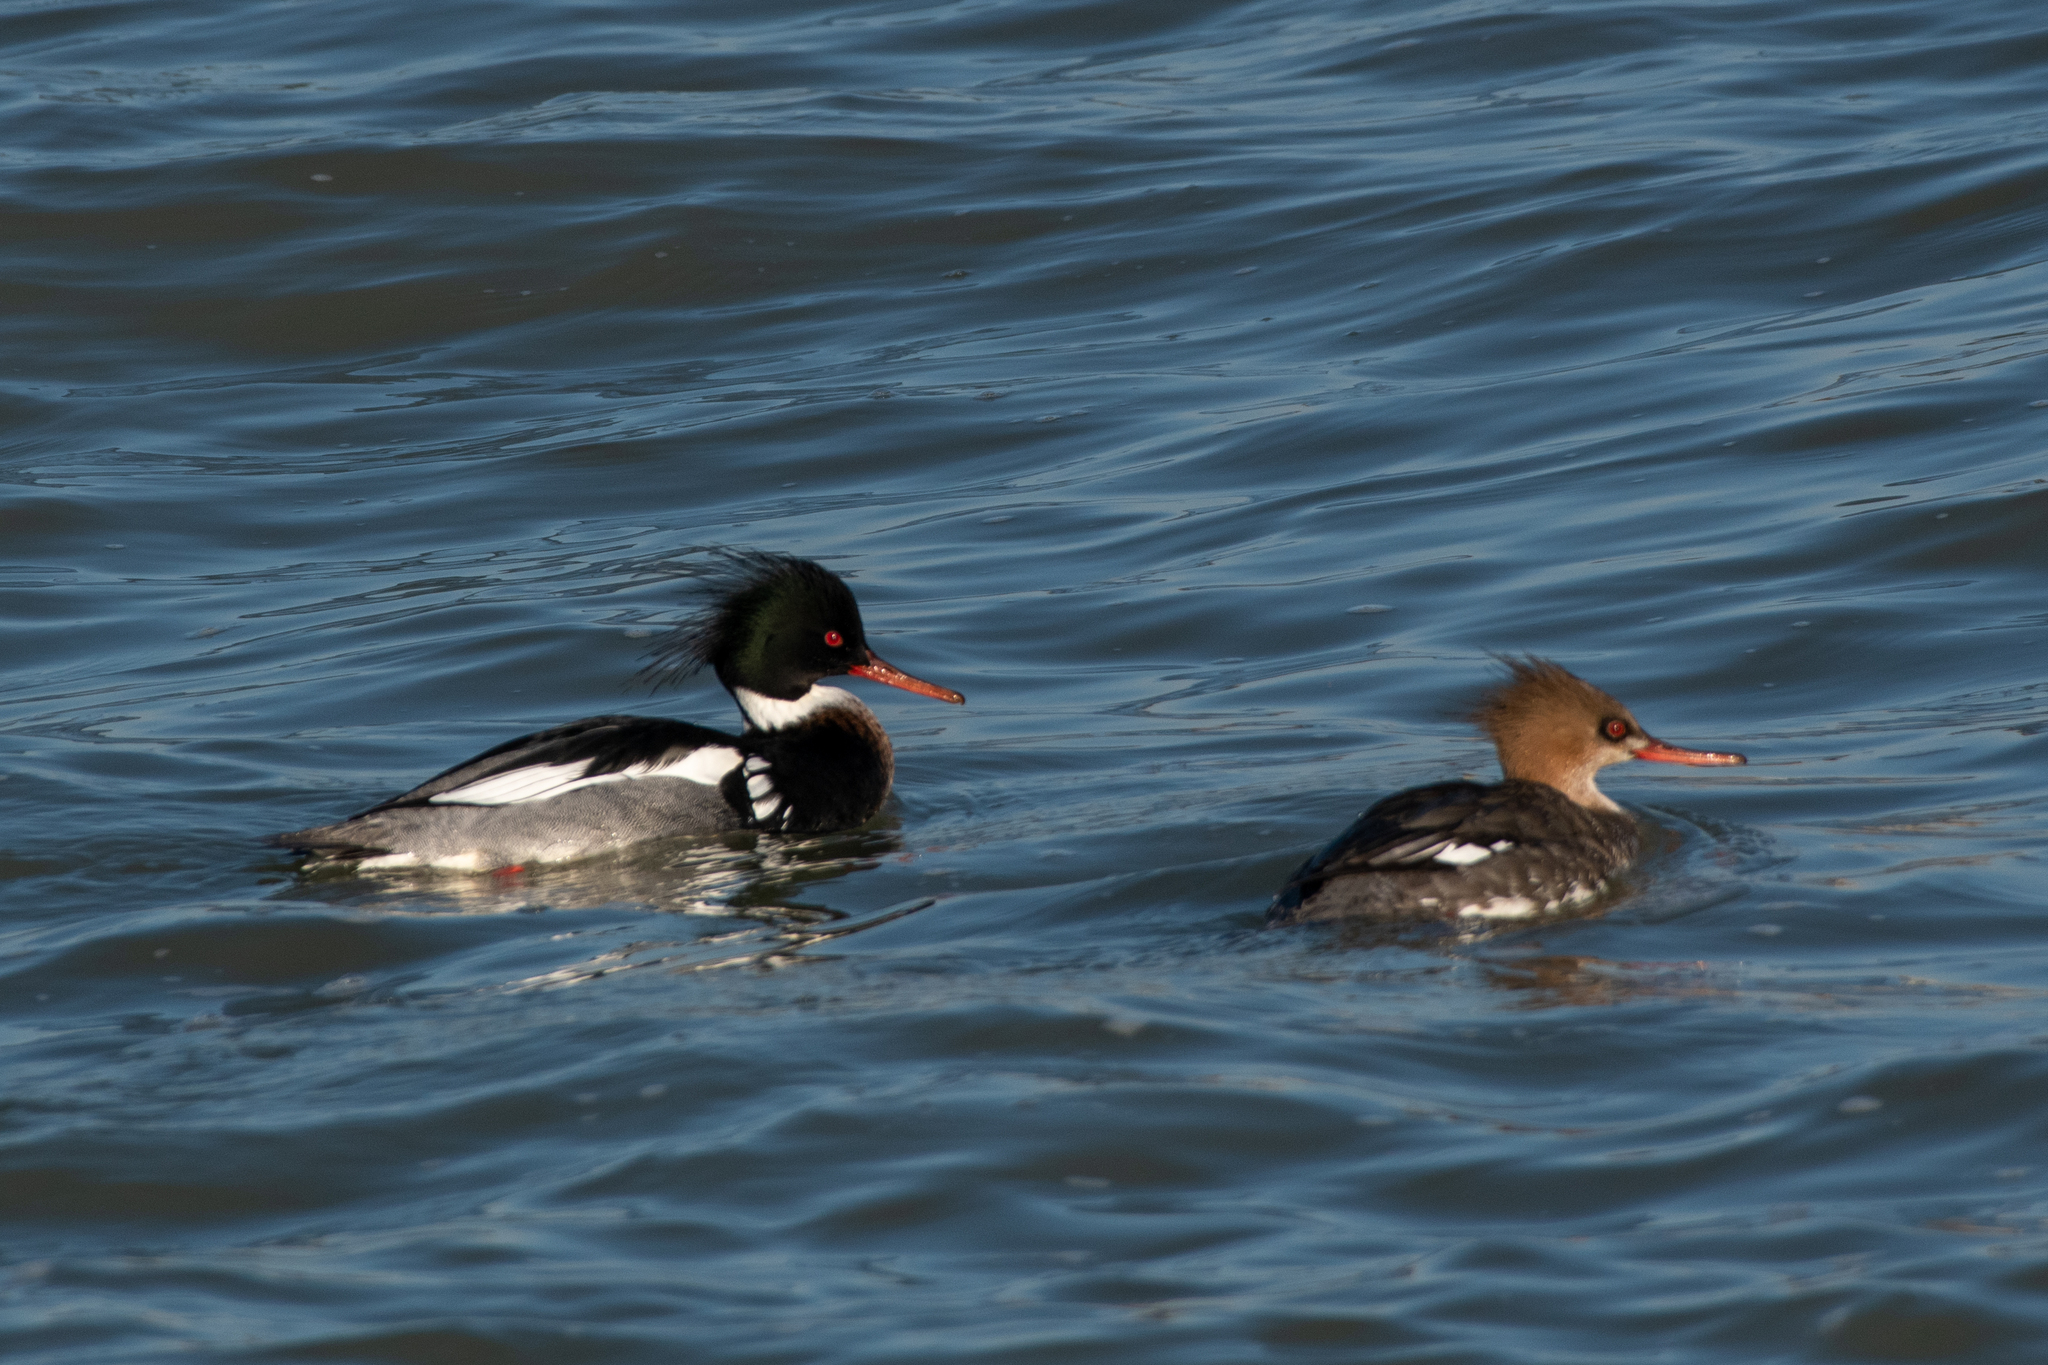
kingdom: Animalia
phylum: Chordata
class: Aves
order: Anseriformes
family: Anatidae
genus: Mergus
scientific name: Mergus serrator
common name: Red-breasted merganser
